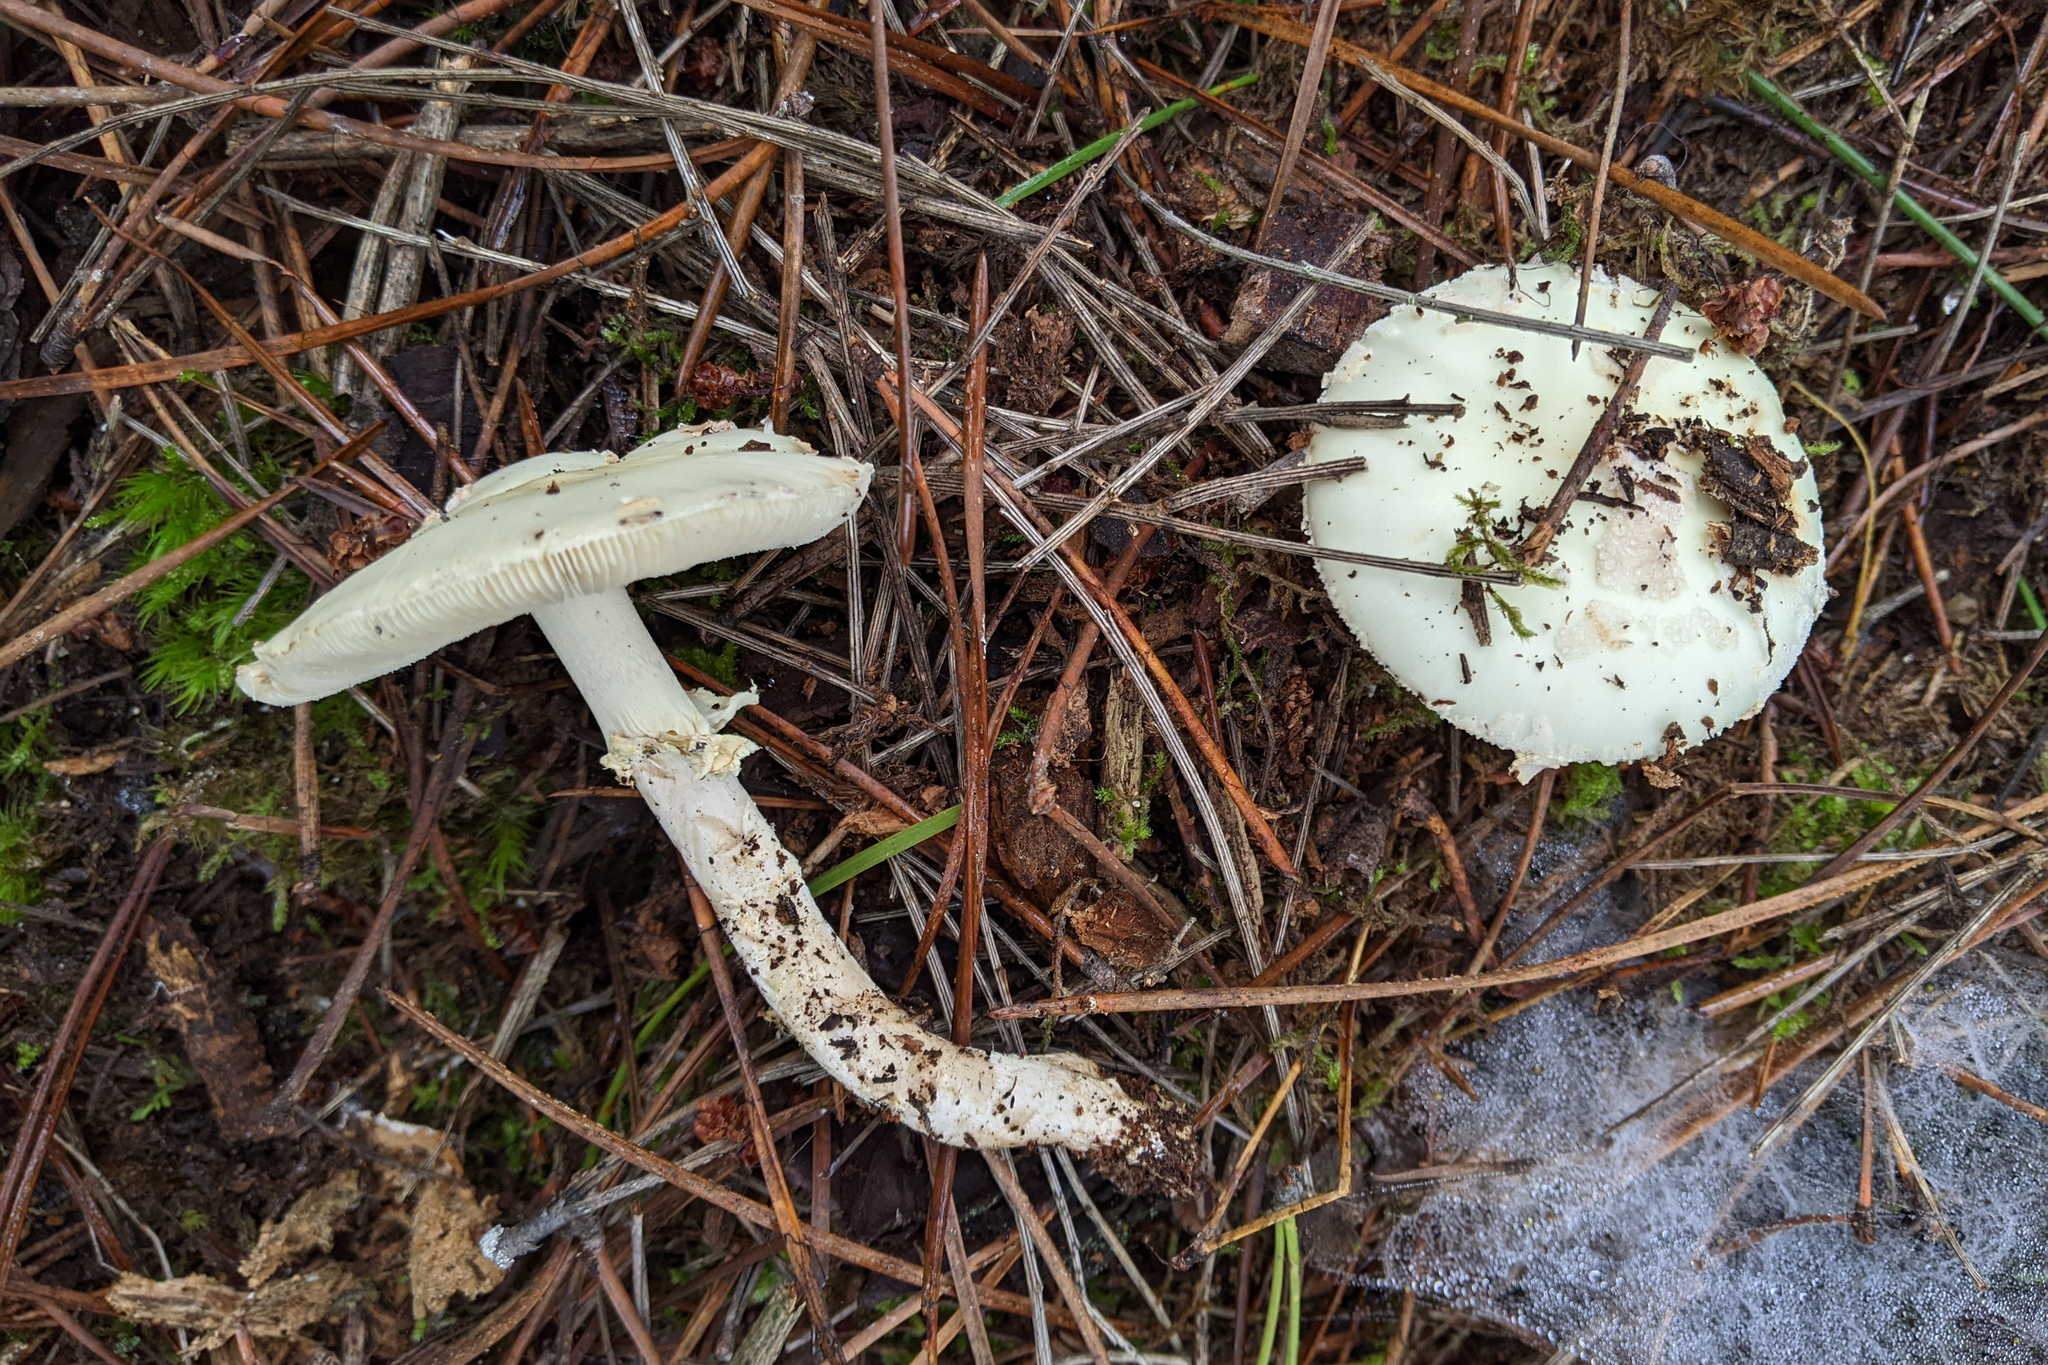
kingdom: Fungi
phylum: Basidiomycota
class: Agaricomycetes
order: Agaricales
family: Amanitaceae
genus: Amanita
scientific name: Amanita citrina
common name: False death-cap
